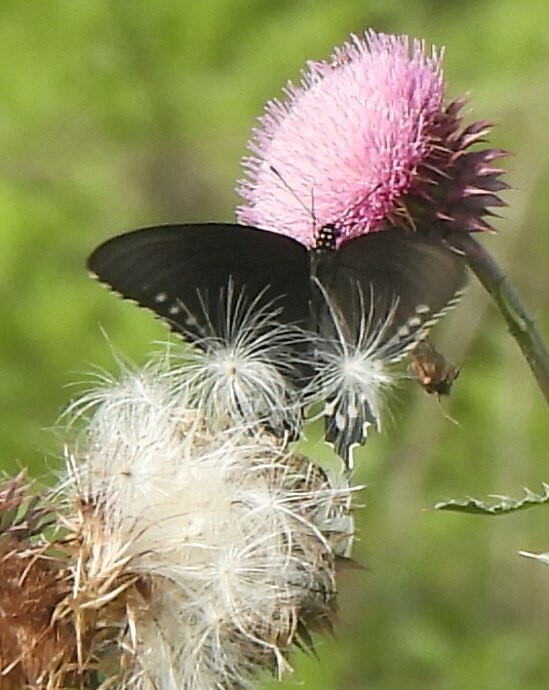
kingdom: Animalia
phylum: Arthropoda
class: Insecta
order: Lepidoptera
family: Papilionidae
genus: Battus
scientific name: Battus philenor
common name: Pipevine swallowtail
